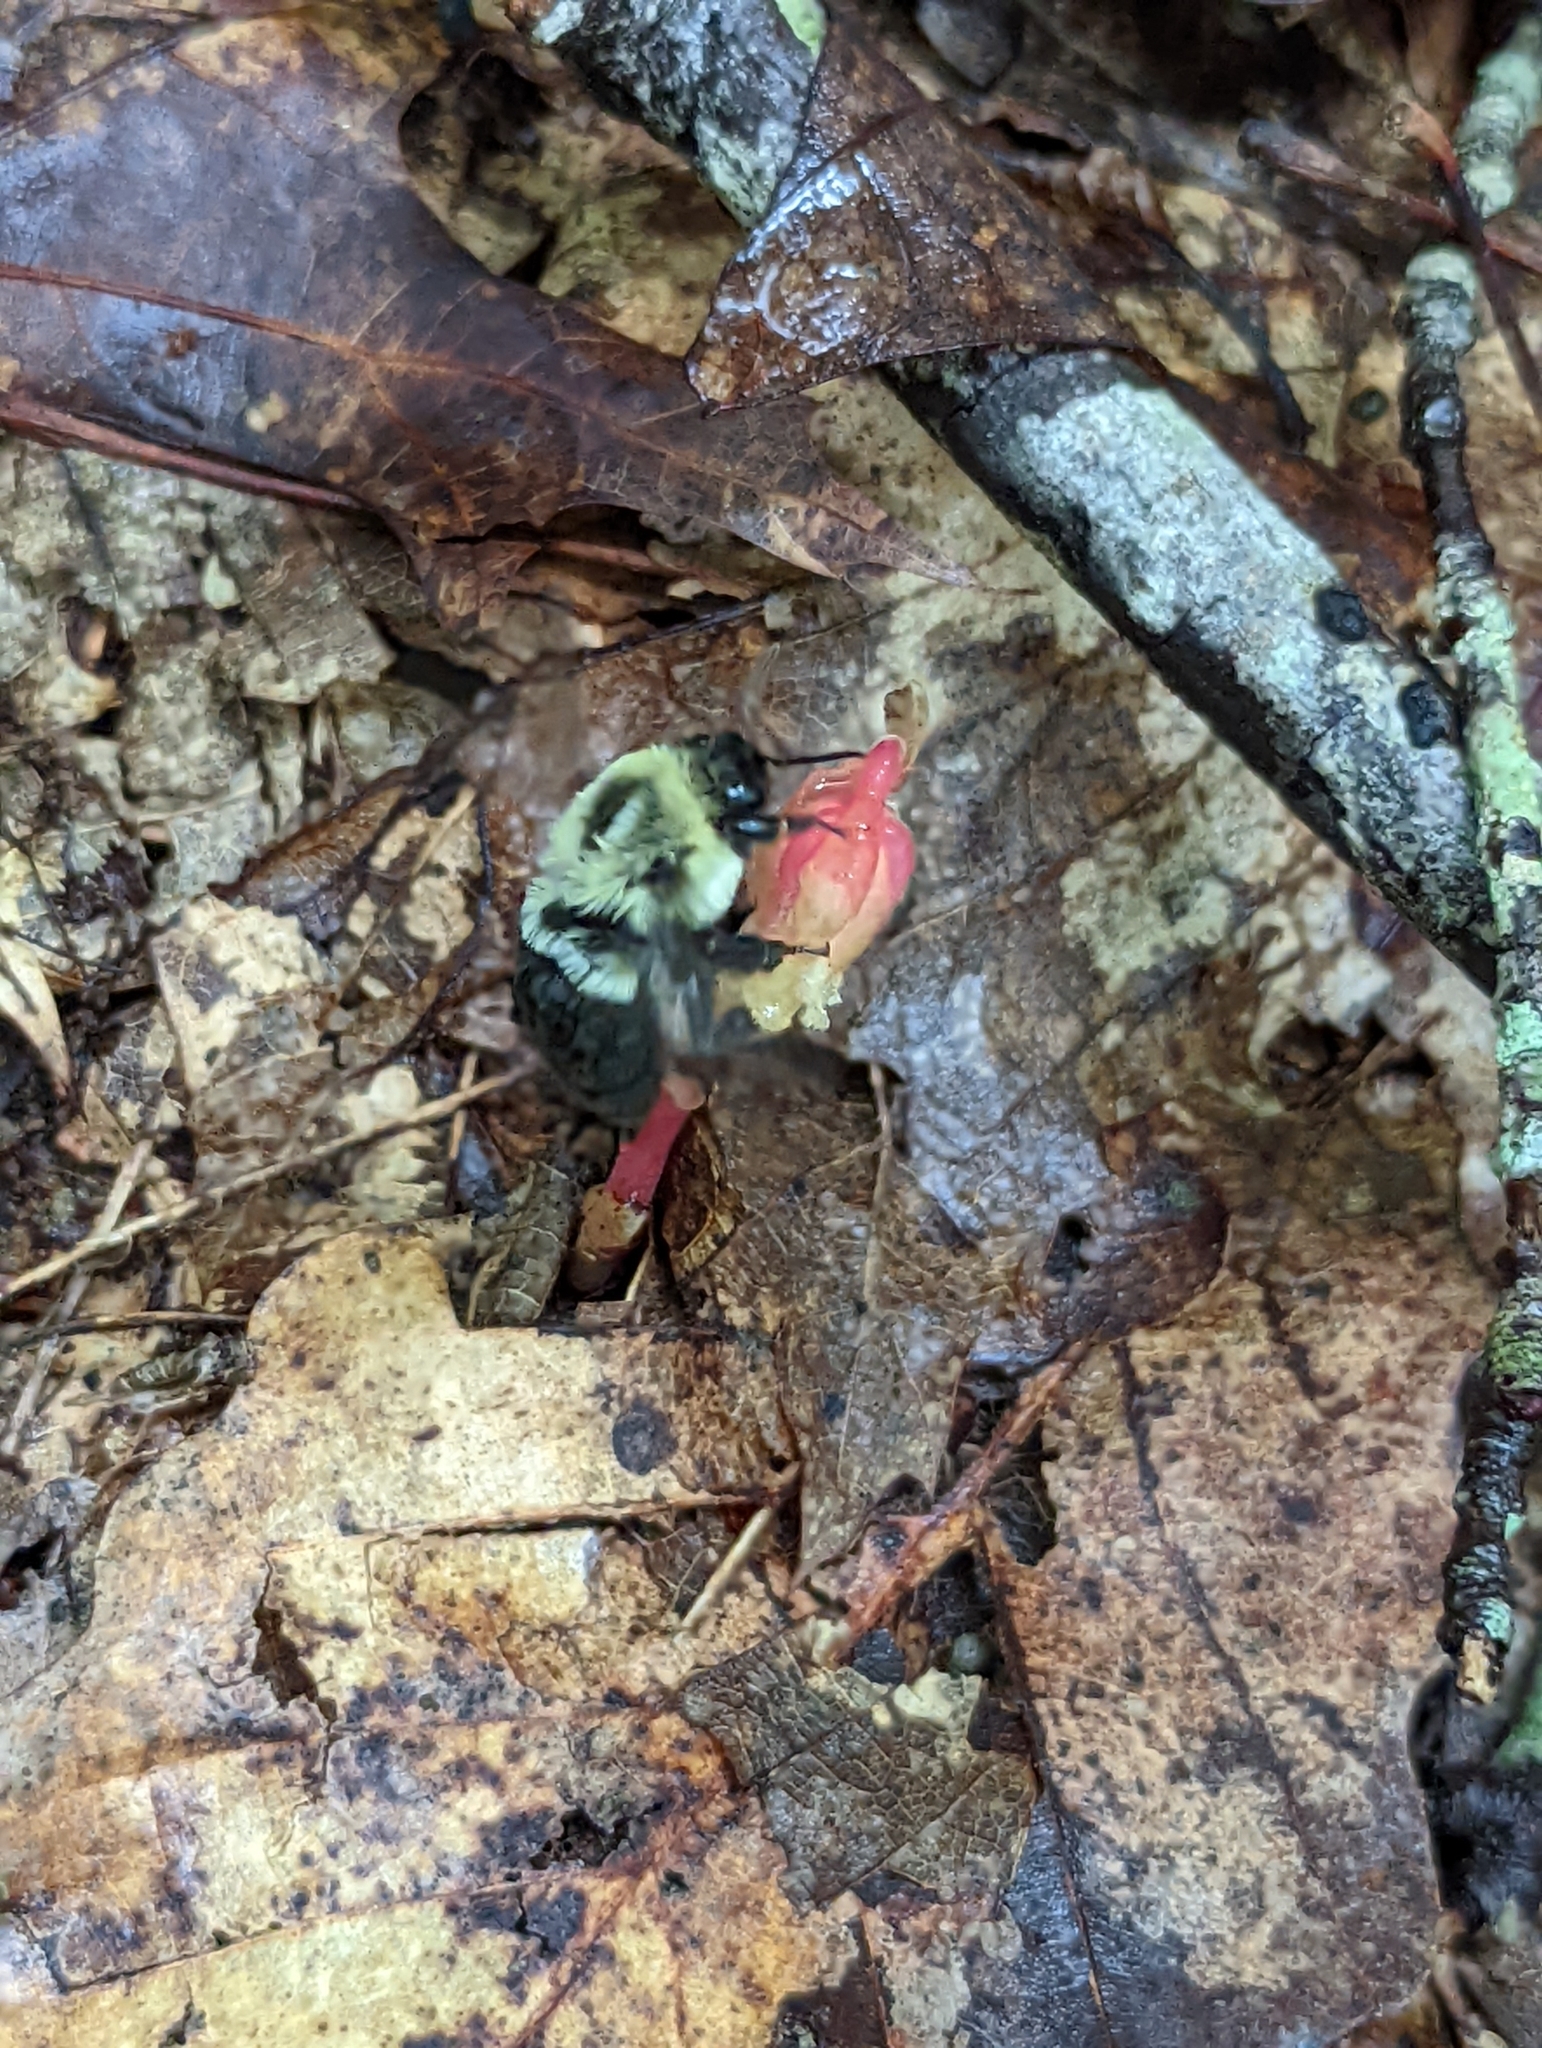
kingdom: Plantae
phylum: Tracheophyta
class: Magnoliopsida
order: Ericales
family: Ericaceae
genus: Hypopitys
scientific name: Hypopitys monotropa
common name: Yellow bird's-nest
